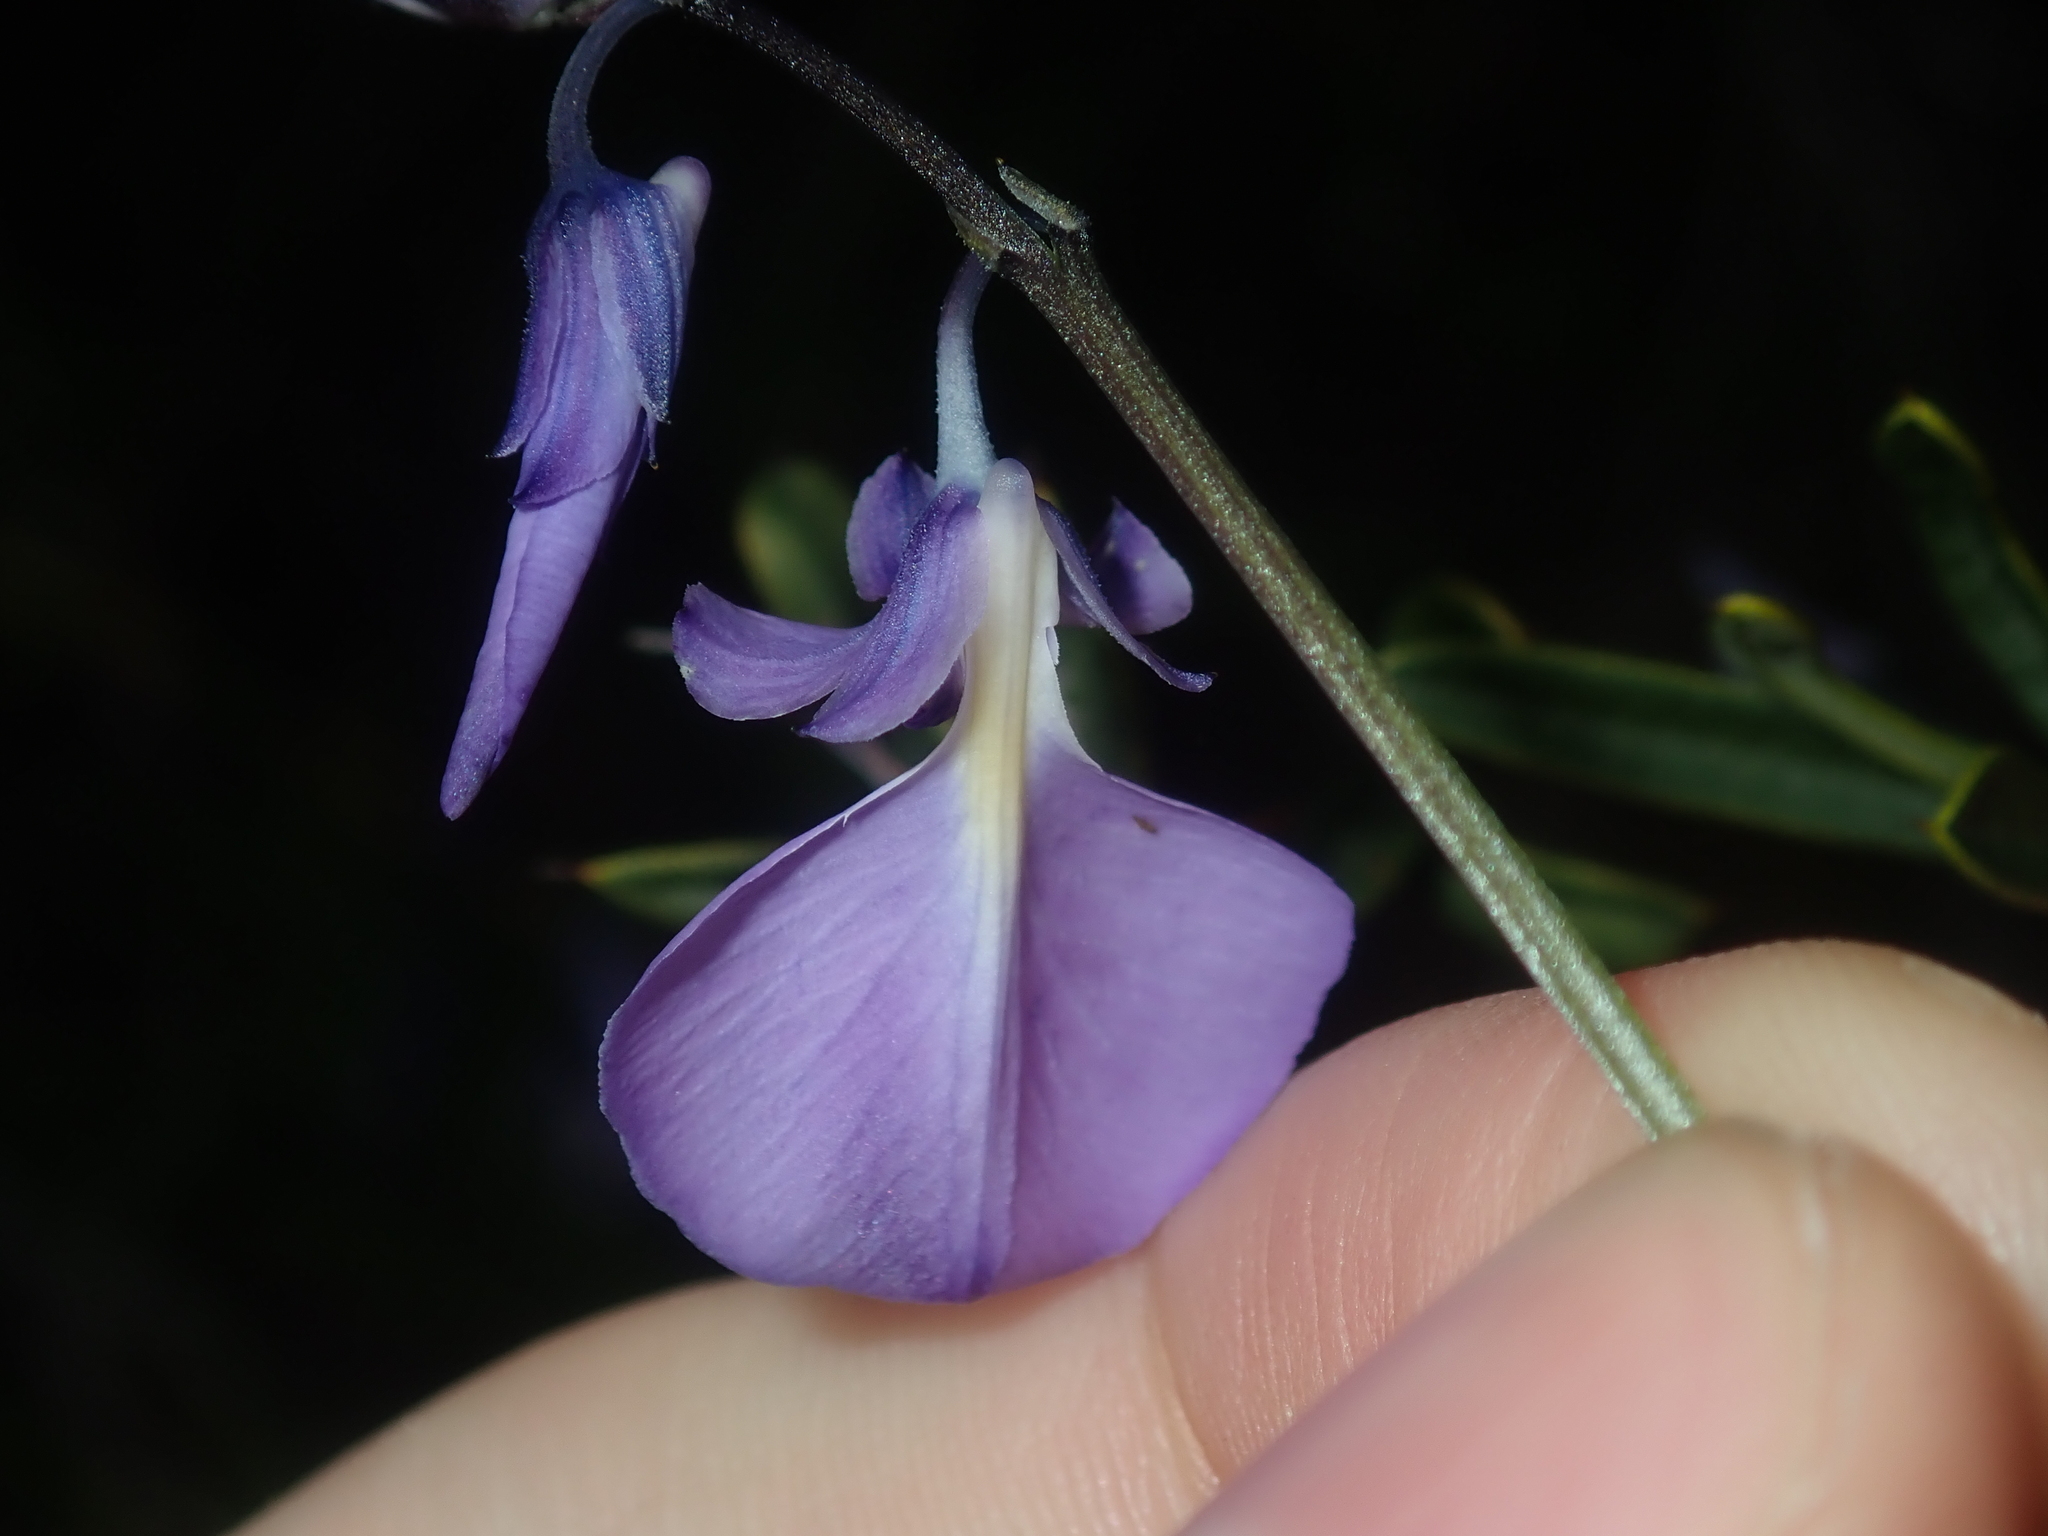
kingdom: Plantae
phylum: Tracheophyta
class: Magnoliopsida
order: Malpighiales
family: Violaceae
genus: Pigea
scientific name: Pigea calycina
